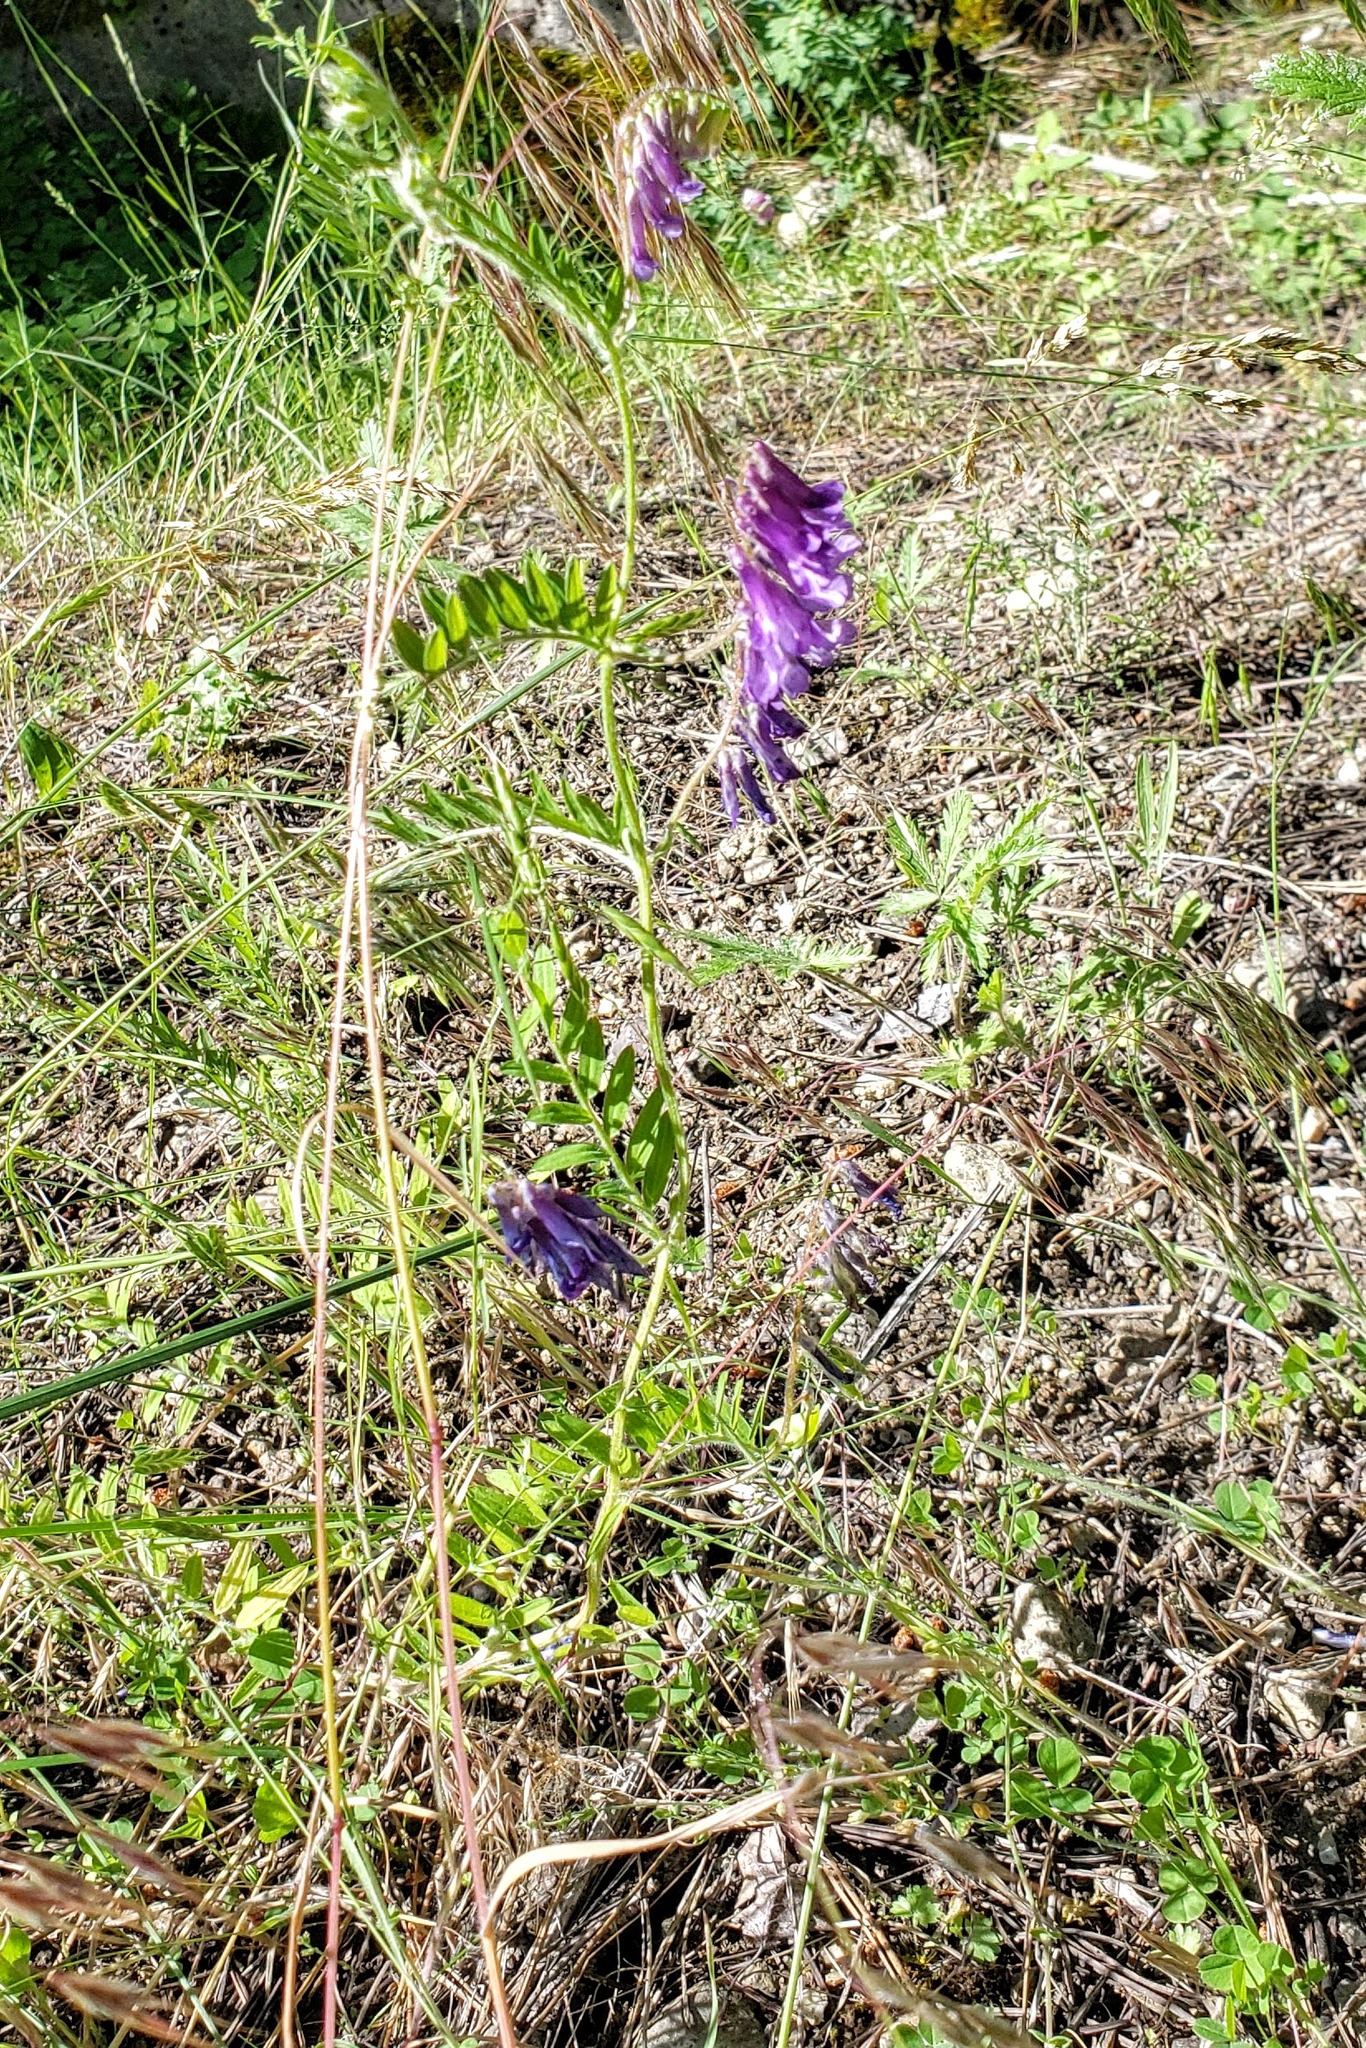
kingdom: Plantae
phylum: Tracheophyta
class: Magnoliopsida
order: Fabales
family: Fabaceae
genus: Vicia
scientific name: Vicia villosa
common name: Fodder vetch
